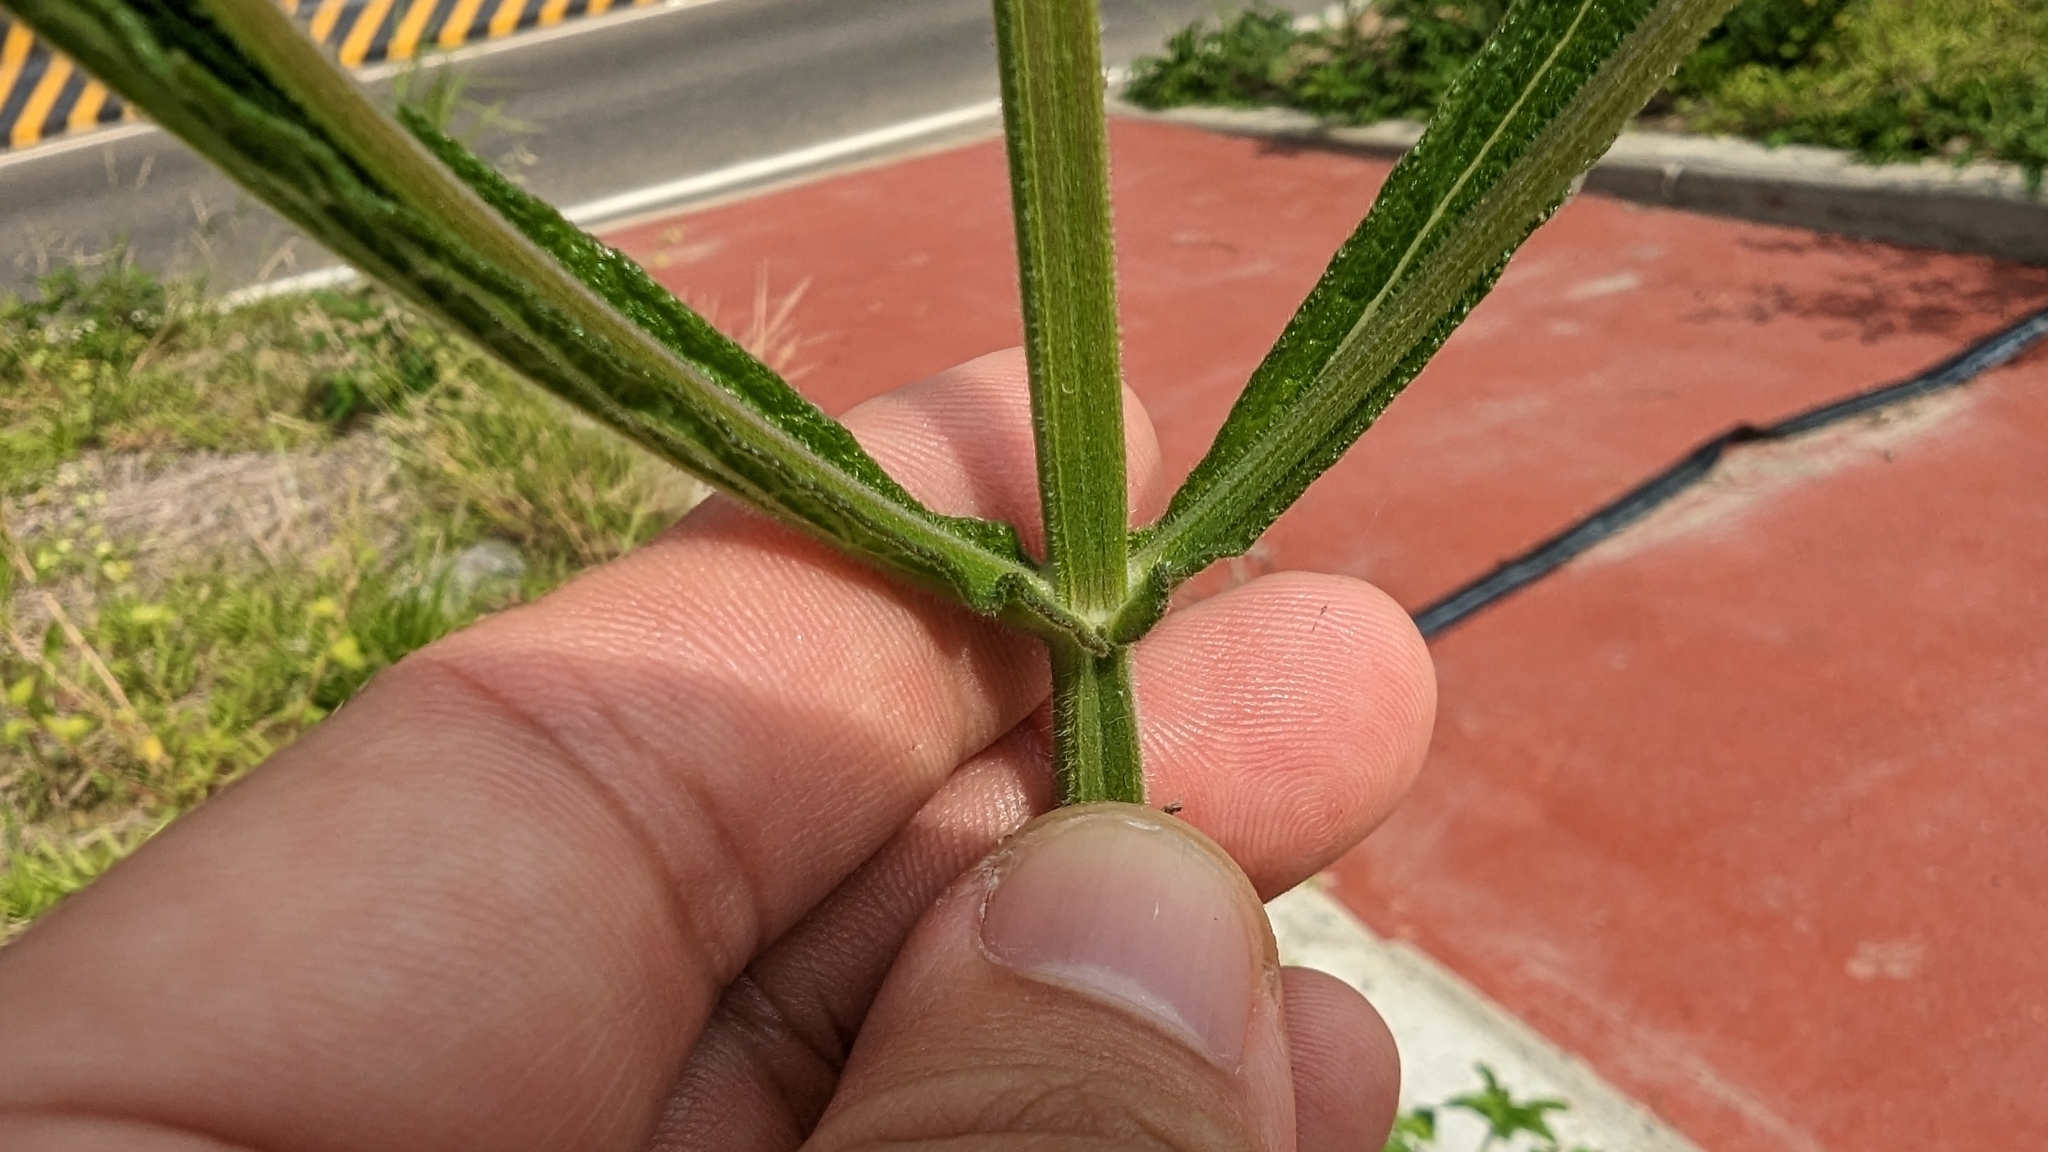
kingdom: Plantae
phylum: Tracheophyta
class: Magnoliopsida
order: Lamiales
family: Verbenaceae
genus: Verbena
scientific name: Verbena bonariensis
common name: Purpletop vervain
